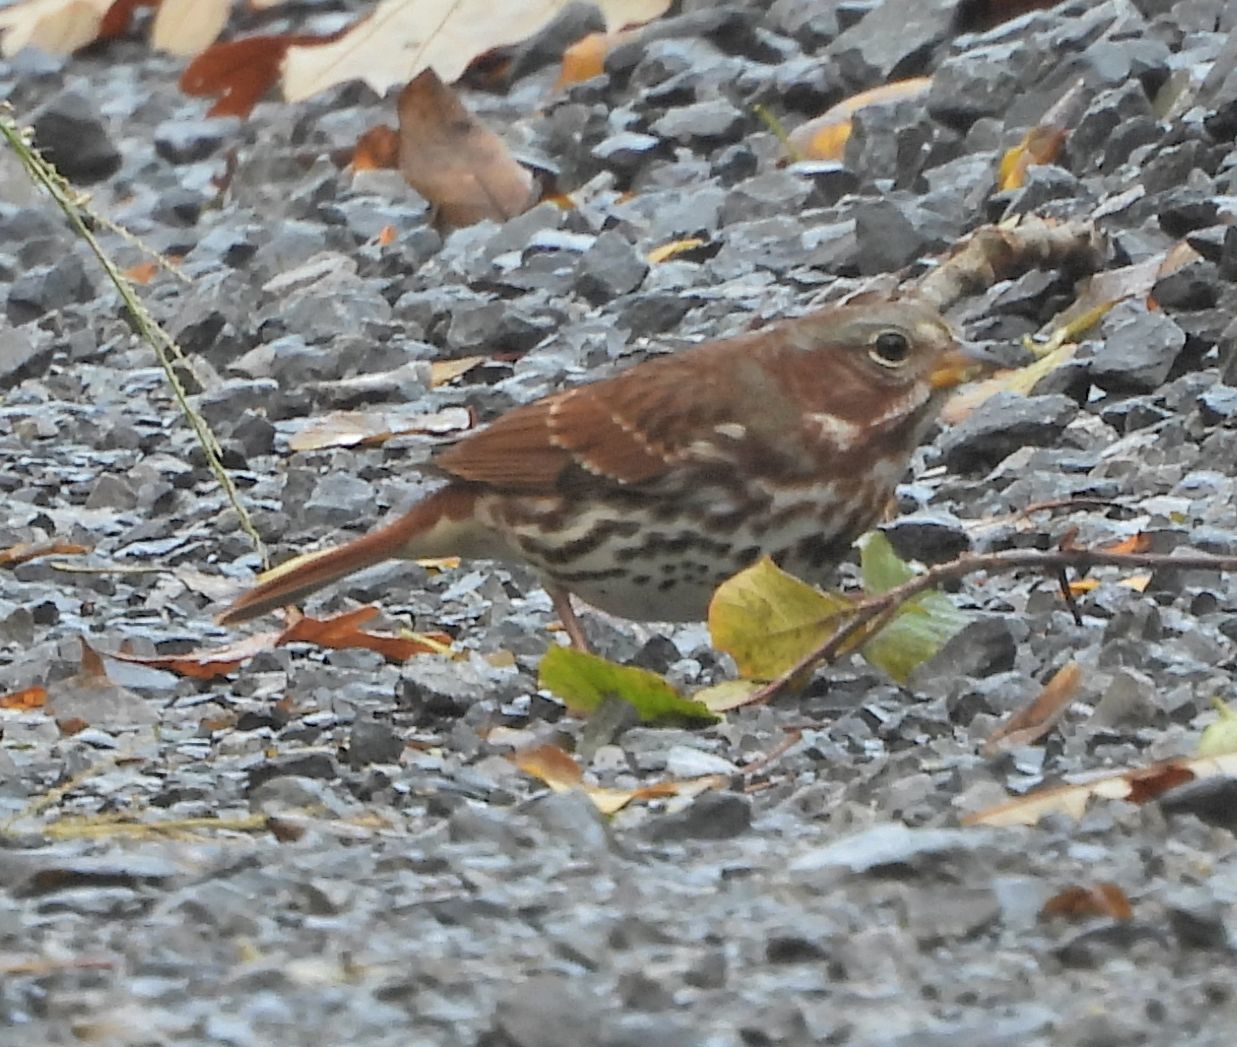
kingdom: Animalia
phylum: Chordata
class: Aves
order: Passeriformes
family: Passerellidae
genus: Passerella
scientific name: Passerella iliaca
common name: Fox sparrow
